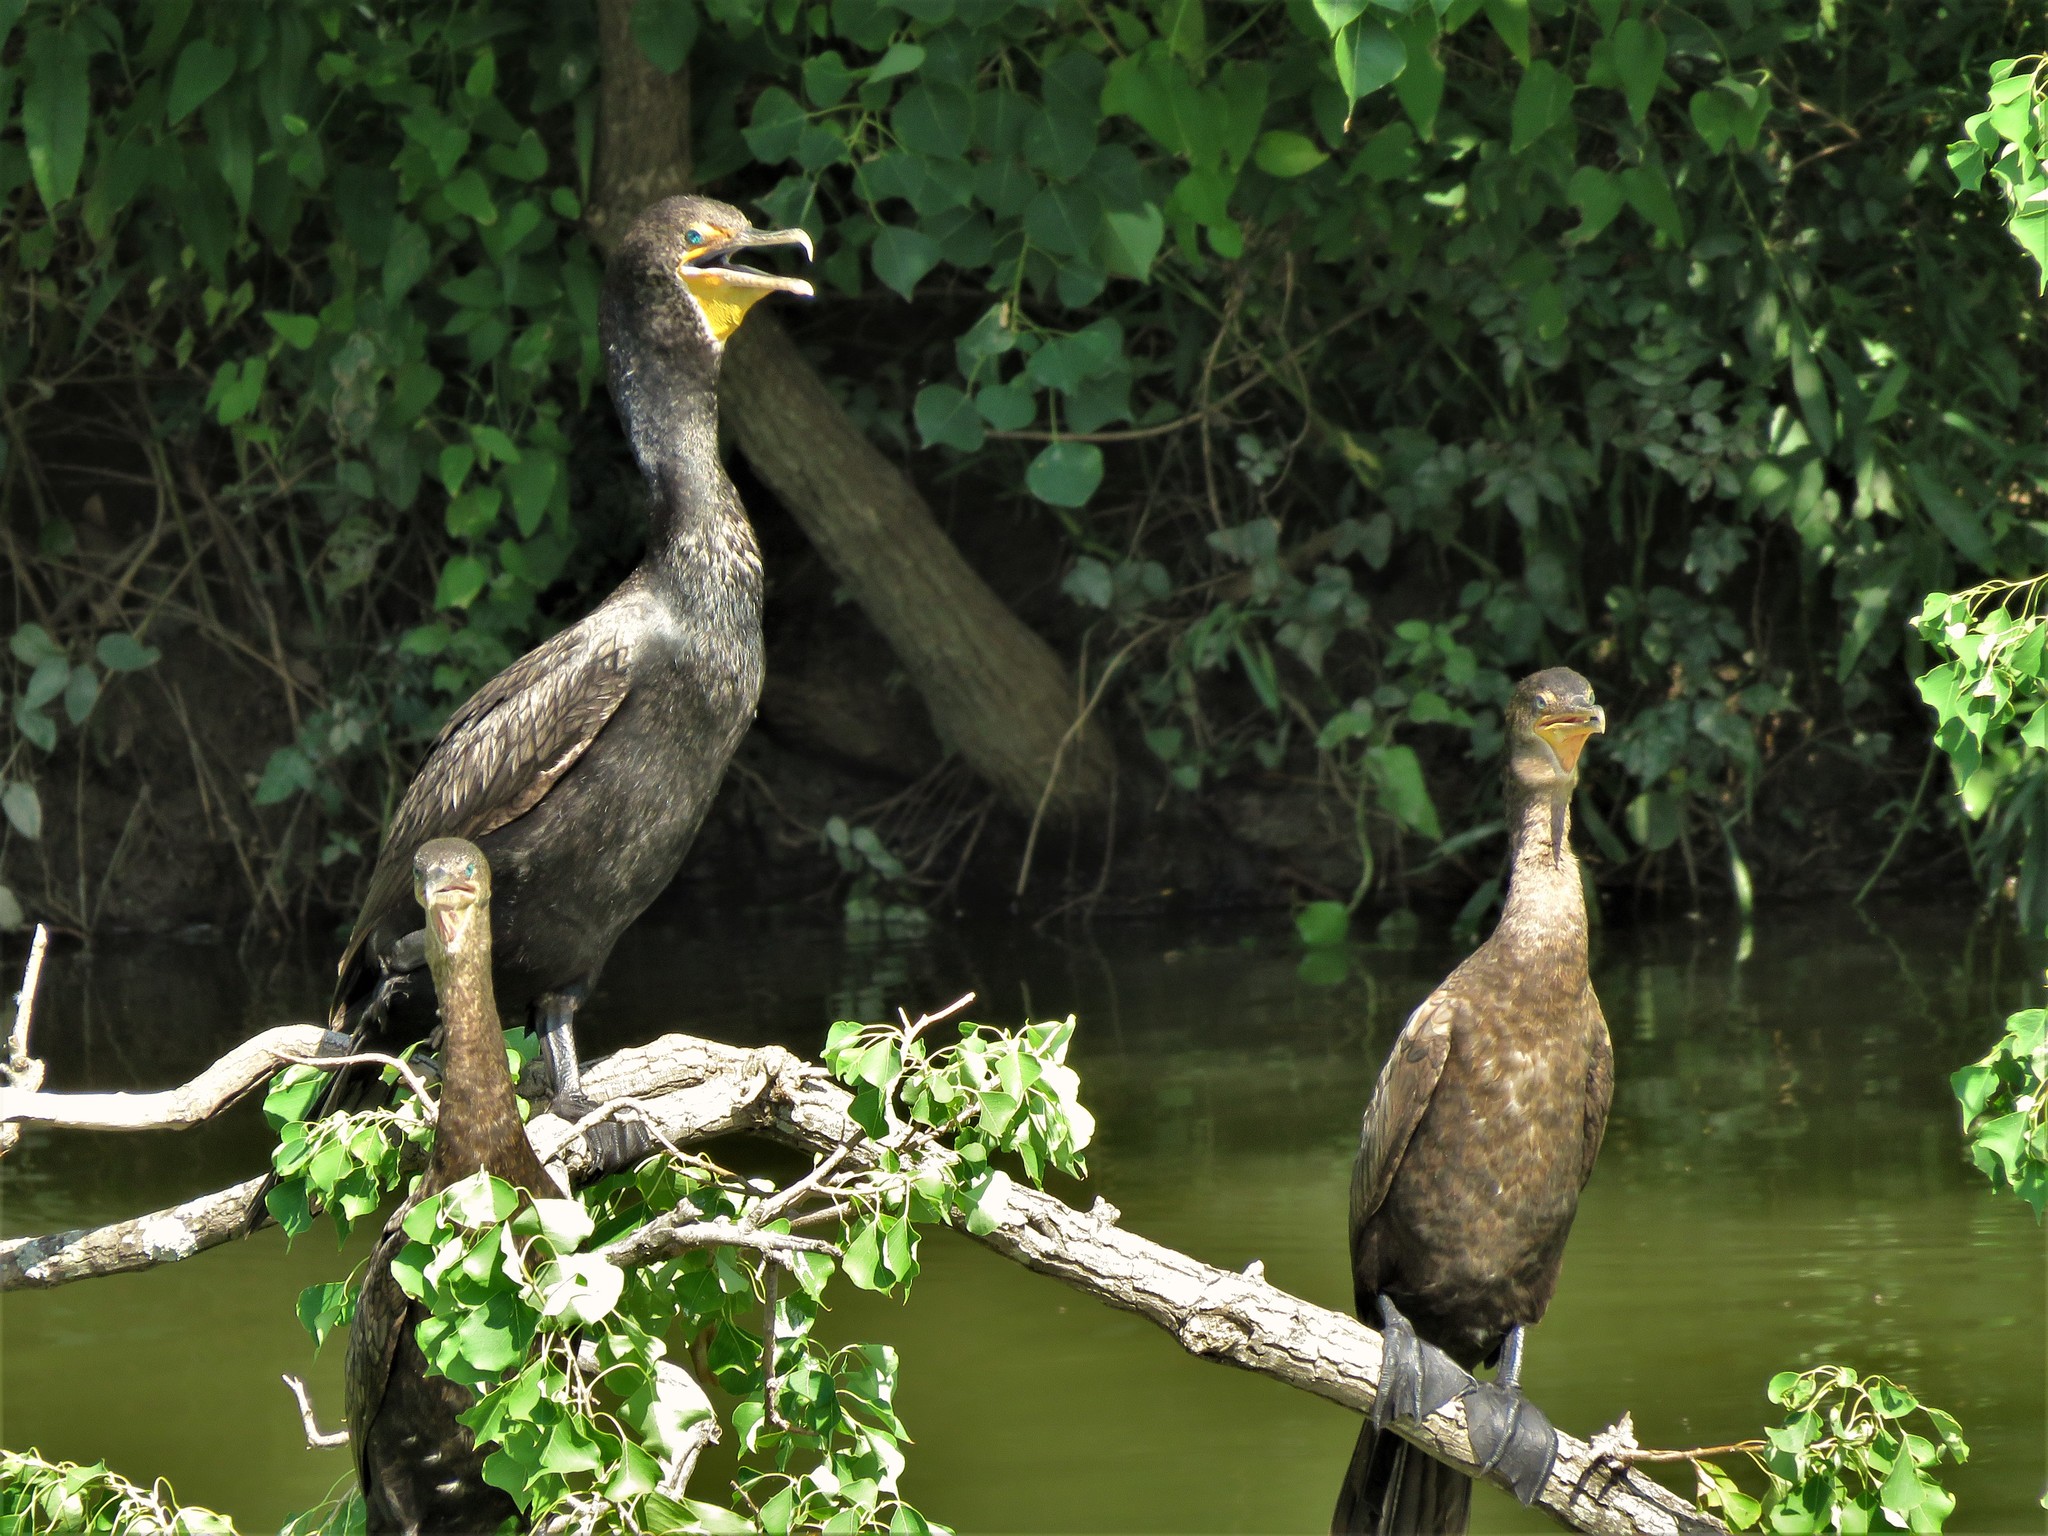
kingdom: Animalia
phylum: Chordata
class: Aves
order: Suliformes
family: Phalacrocoracidae
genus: Phalacrocorax
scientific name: Phalacrocorax auritus
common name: Double-crested cormorant
